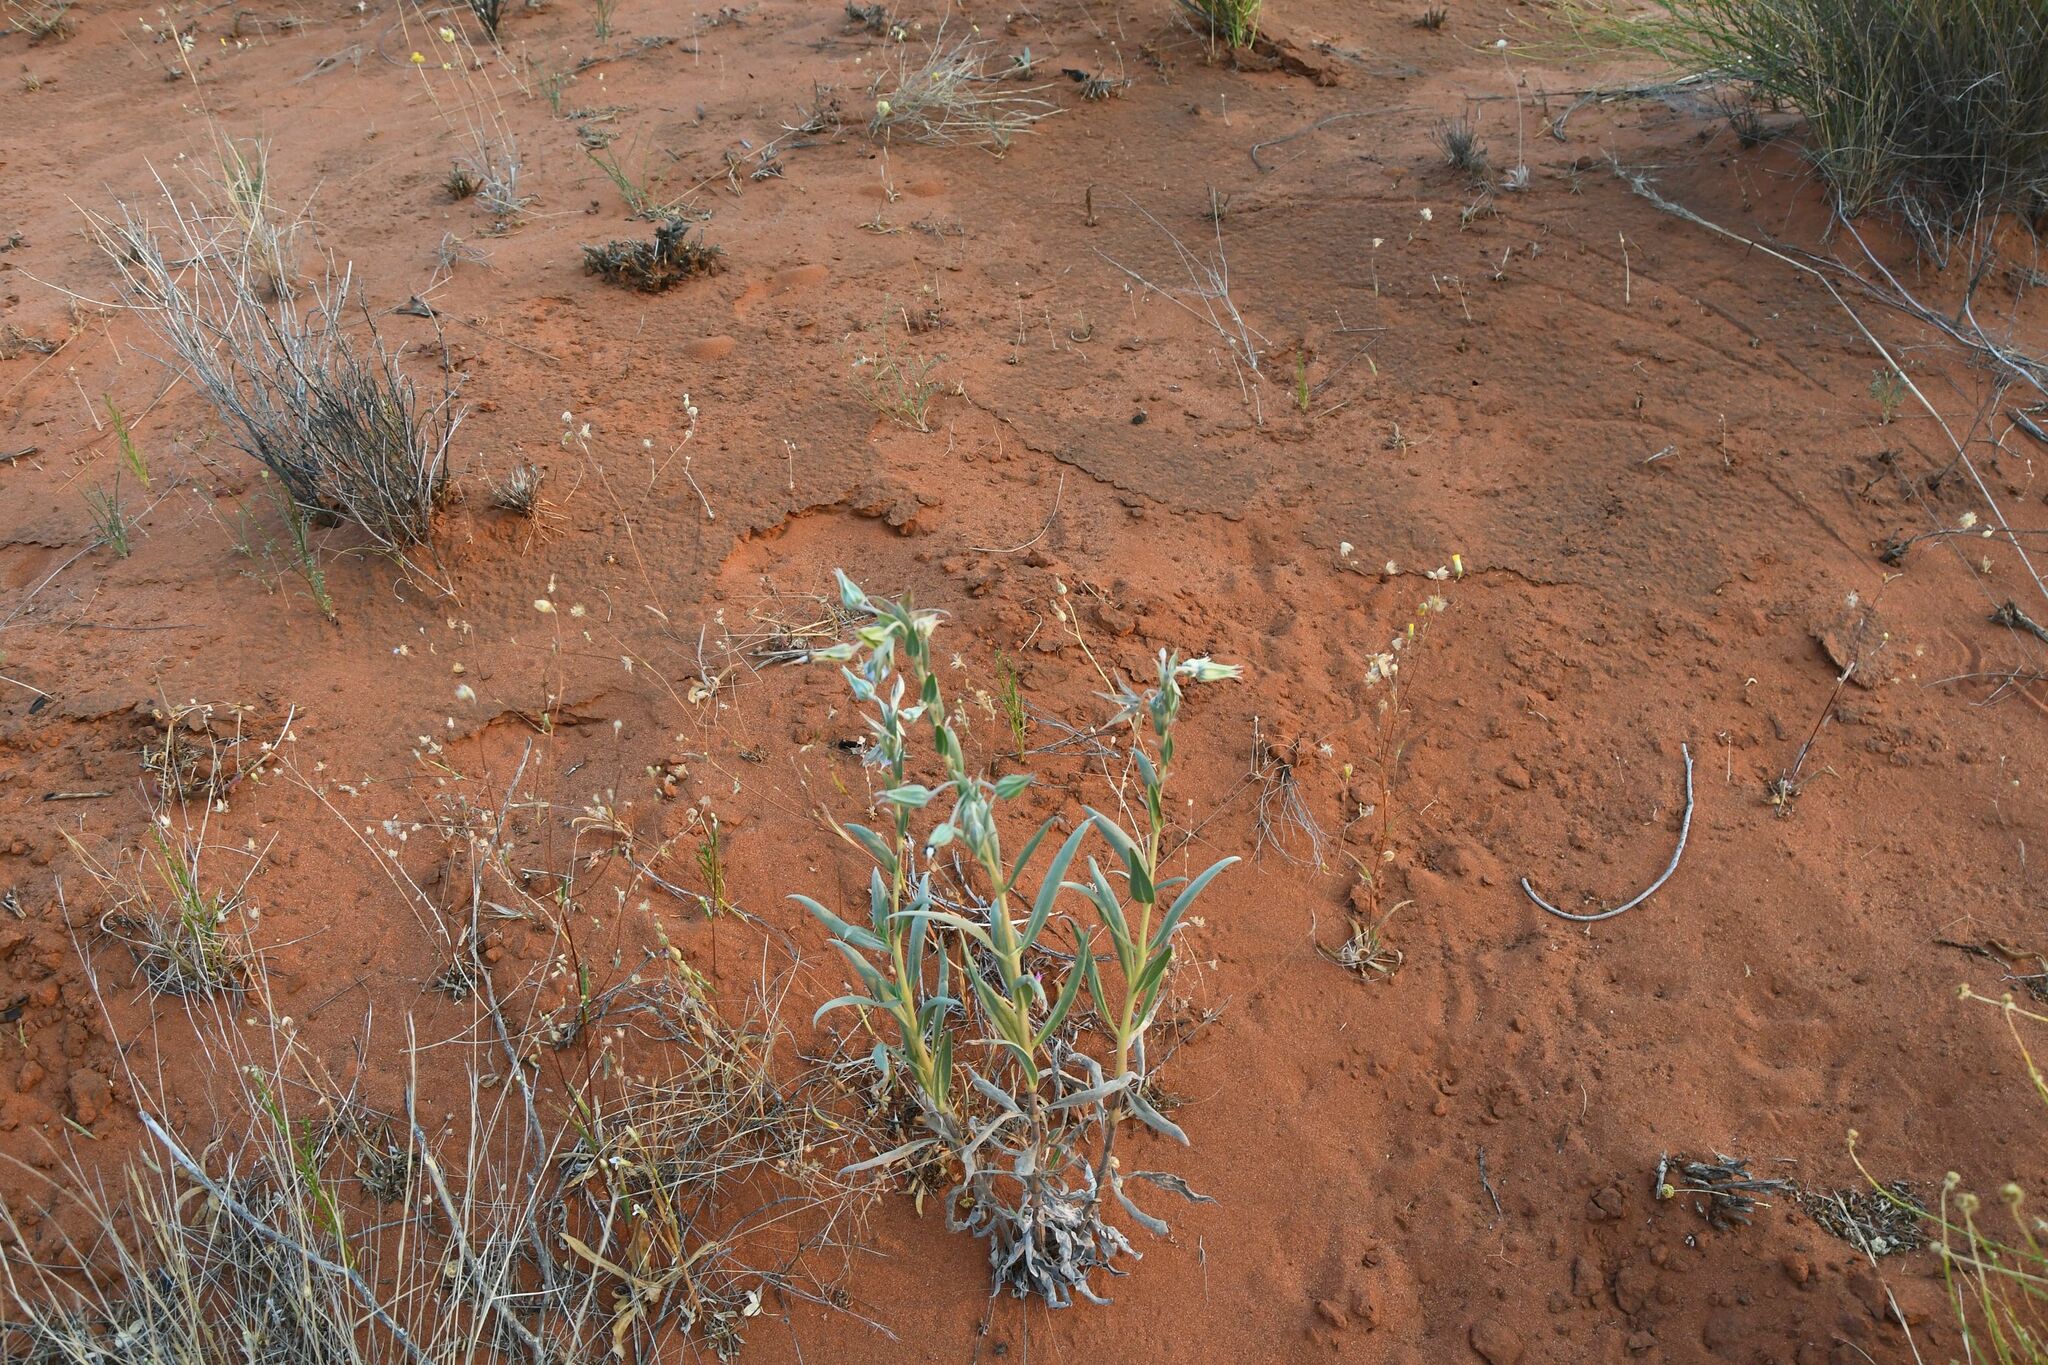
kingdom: Plantae
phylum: Tracheophyta
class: Magnoliopsida
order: Boraginales
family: Boraginaceae
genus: Trichodesma
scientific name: Trichodesma zeylanicum
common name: Camelbush
